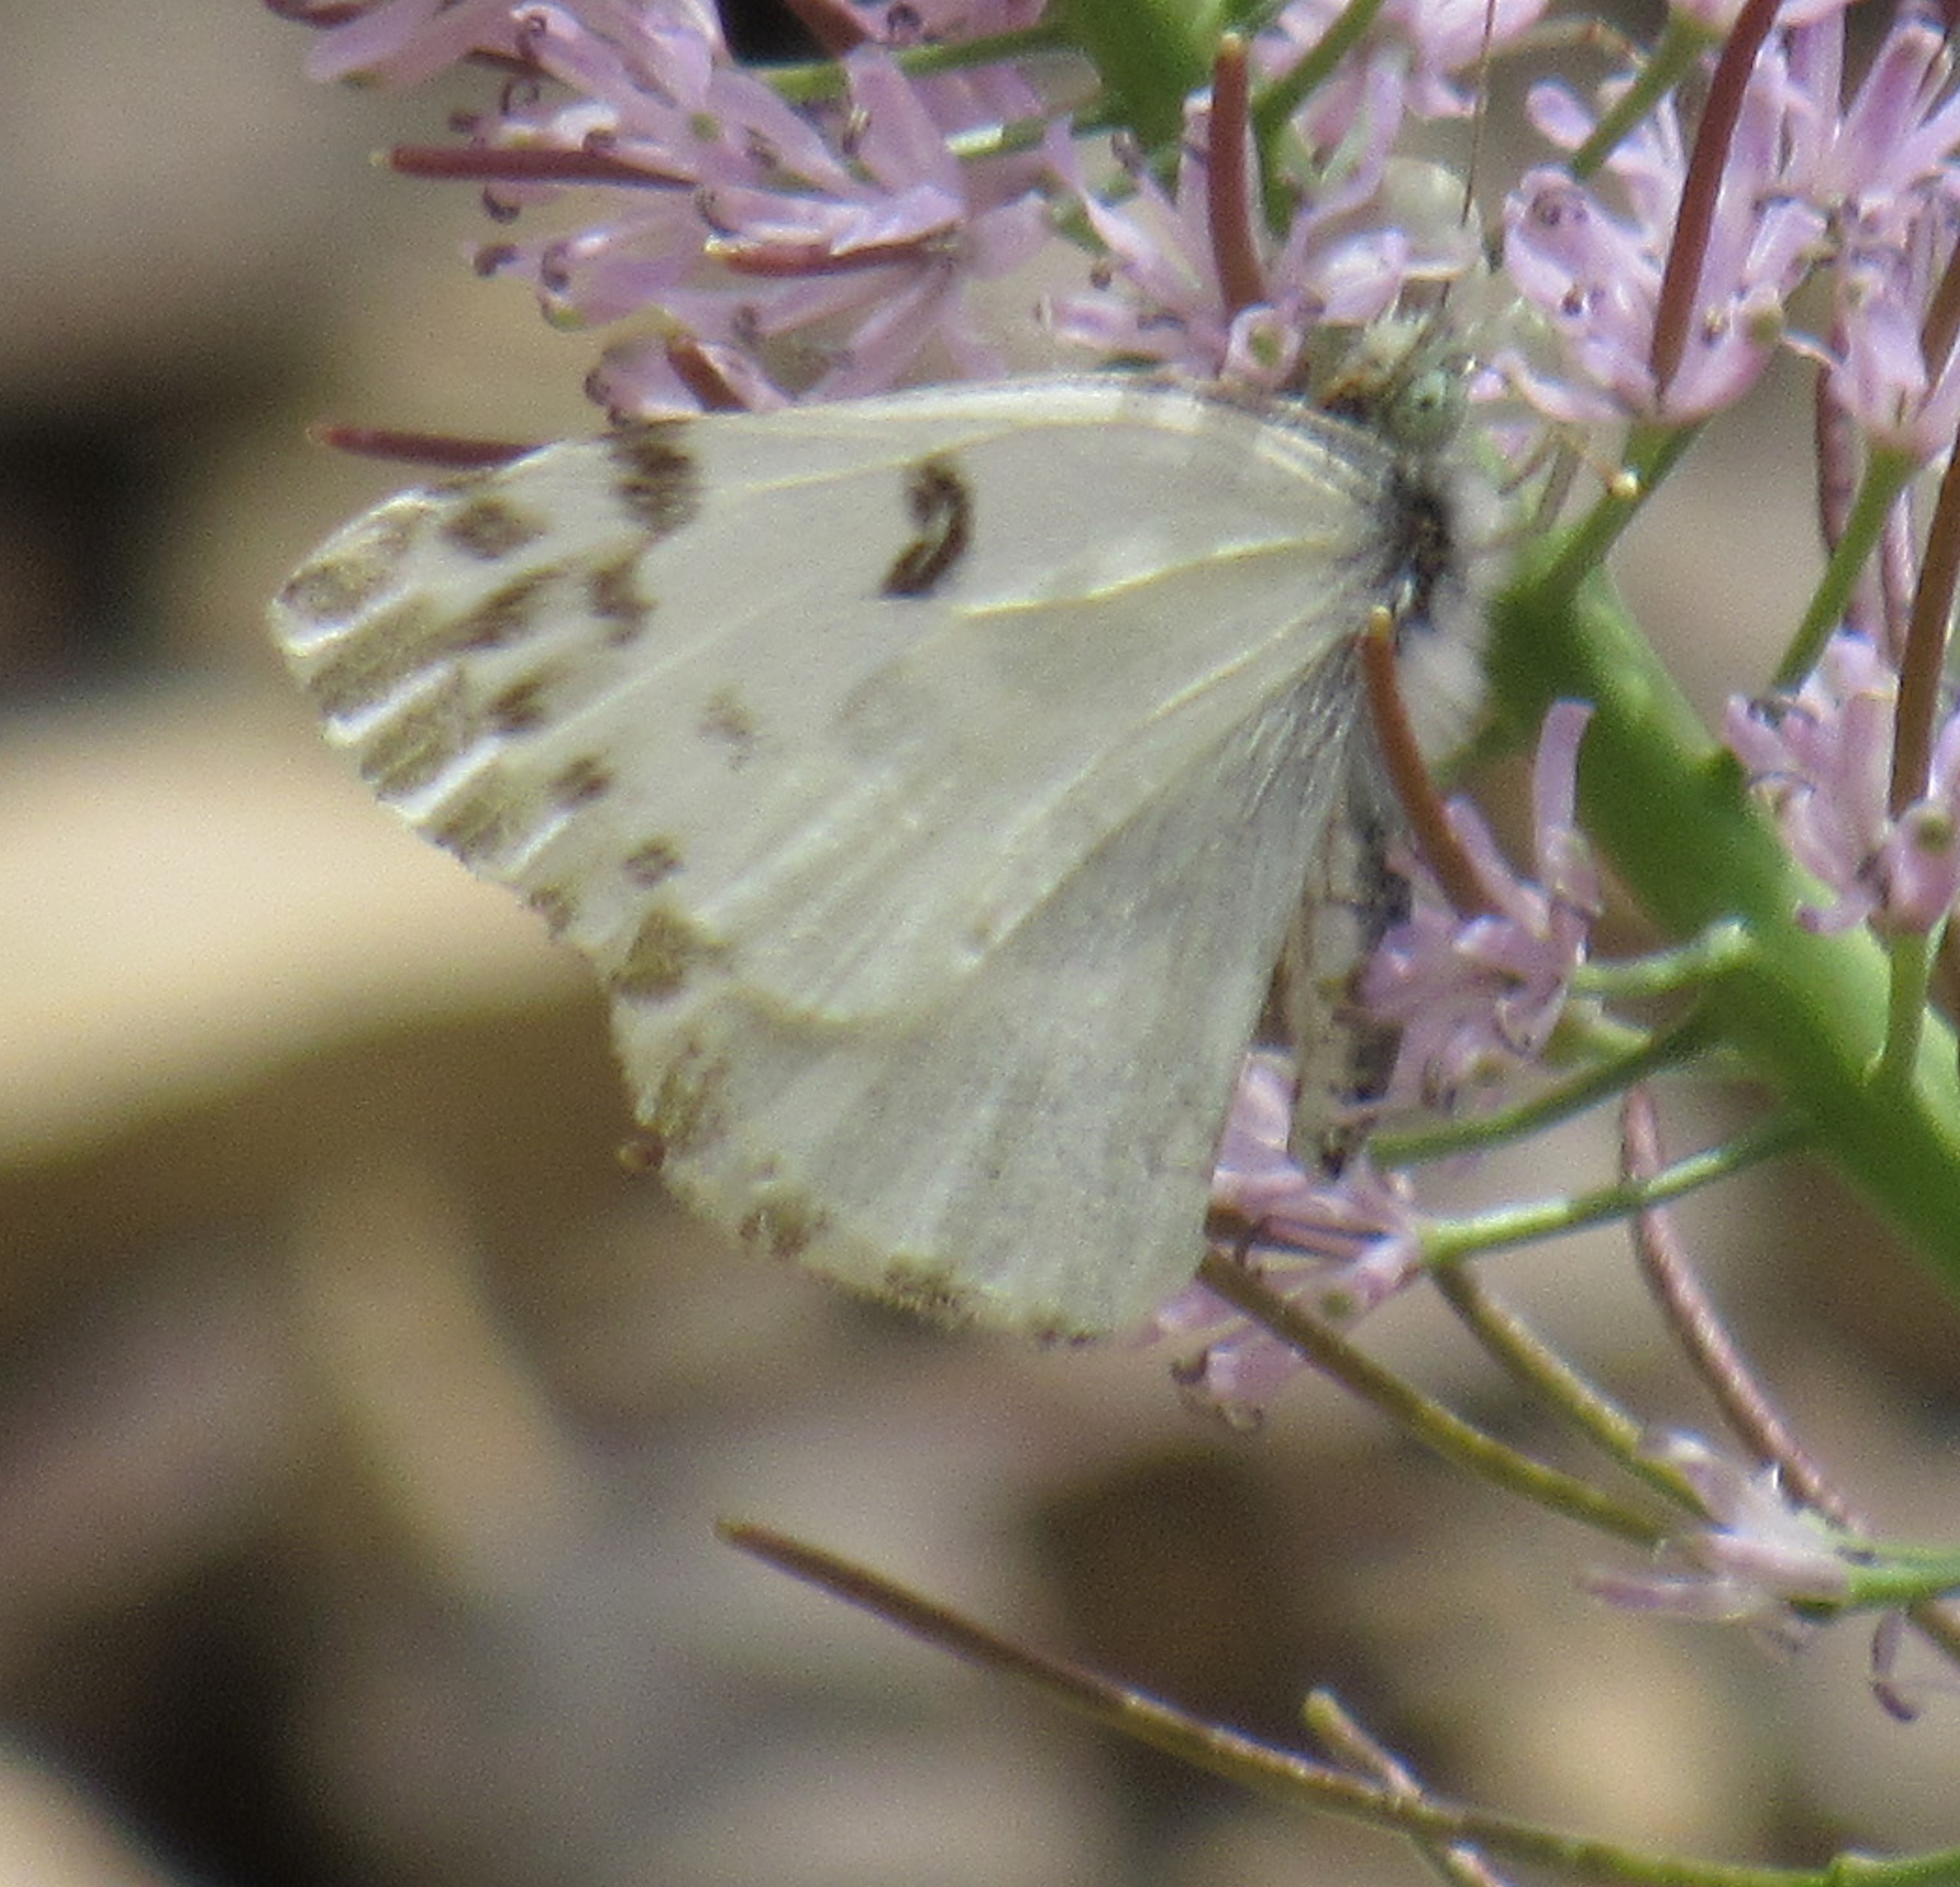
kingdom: Animalia
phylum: Arthropoda
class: Insecta
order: Lepidoptera
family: Pieridae
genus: Pontia
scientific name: Pontia beckerii
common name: Becker's white
